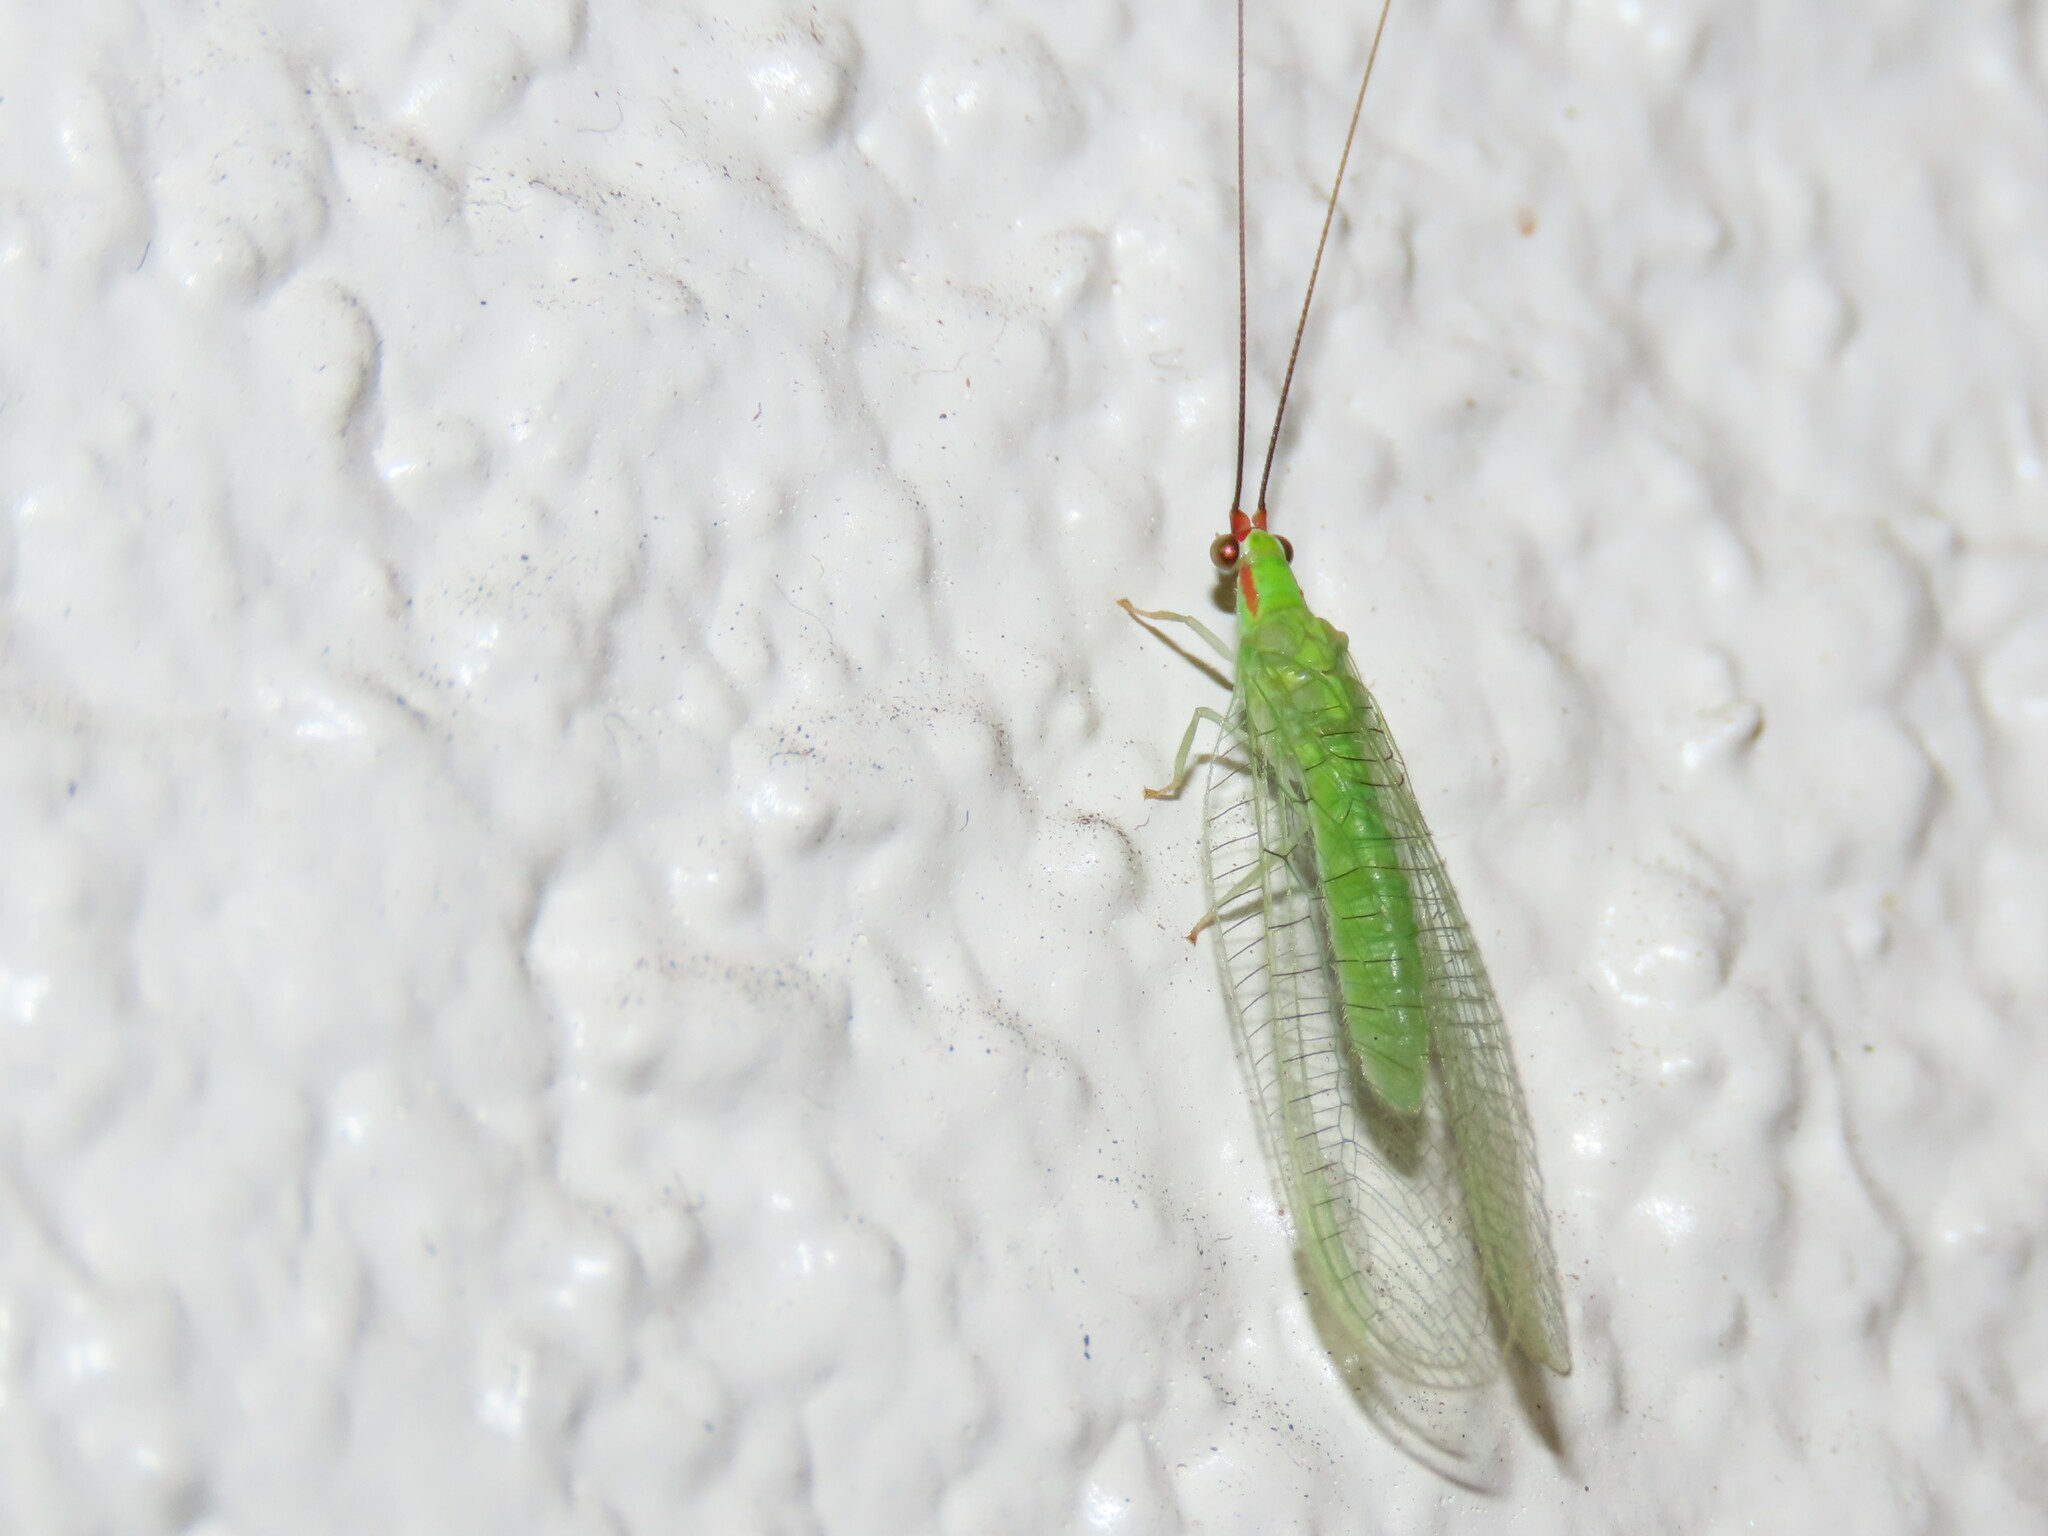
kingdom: Animalia
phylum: Arthropoda
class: Insecta
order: Neuroptera
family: Chrysopidae
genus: Ceraeochrysa
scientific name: Ceraeochrysa smithi
